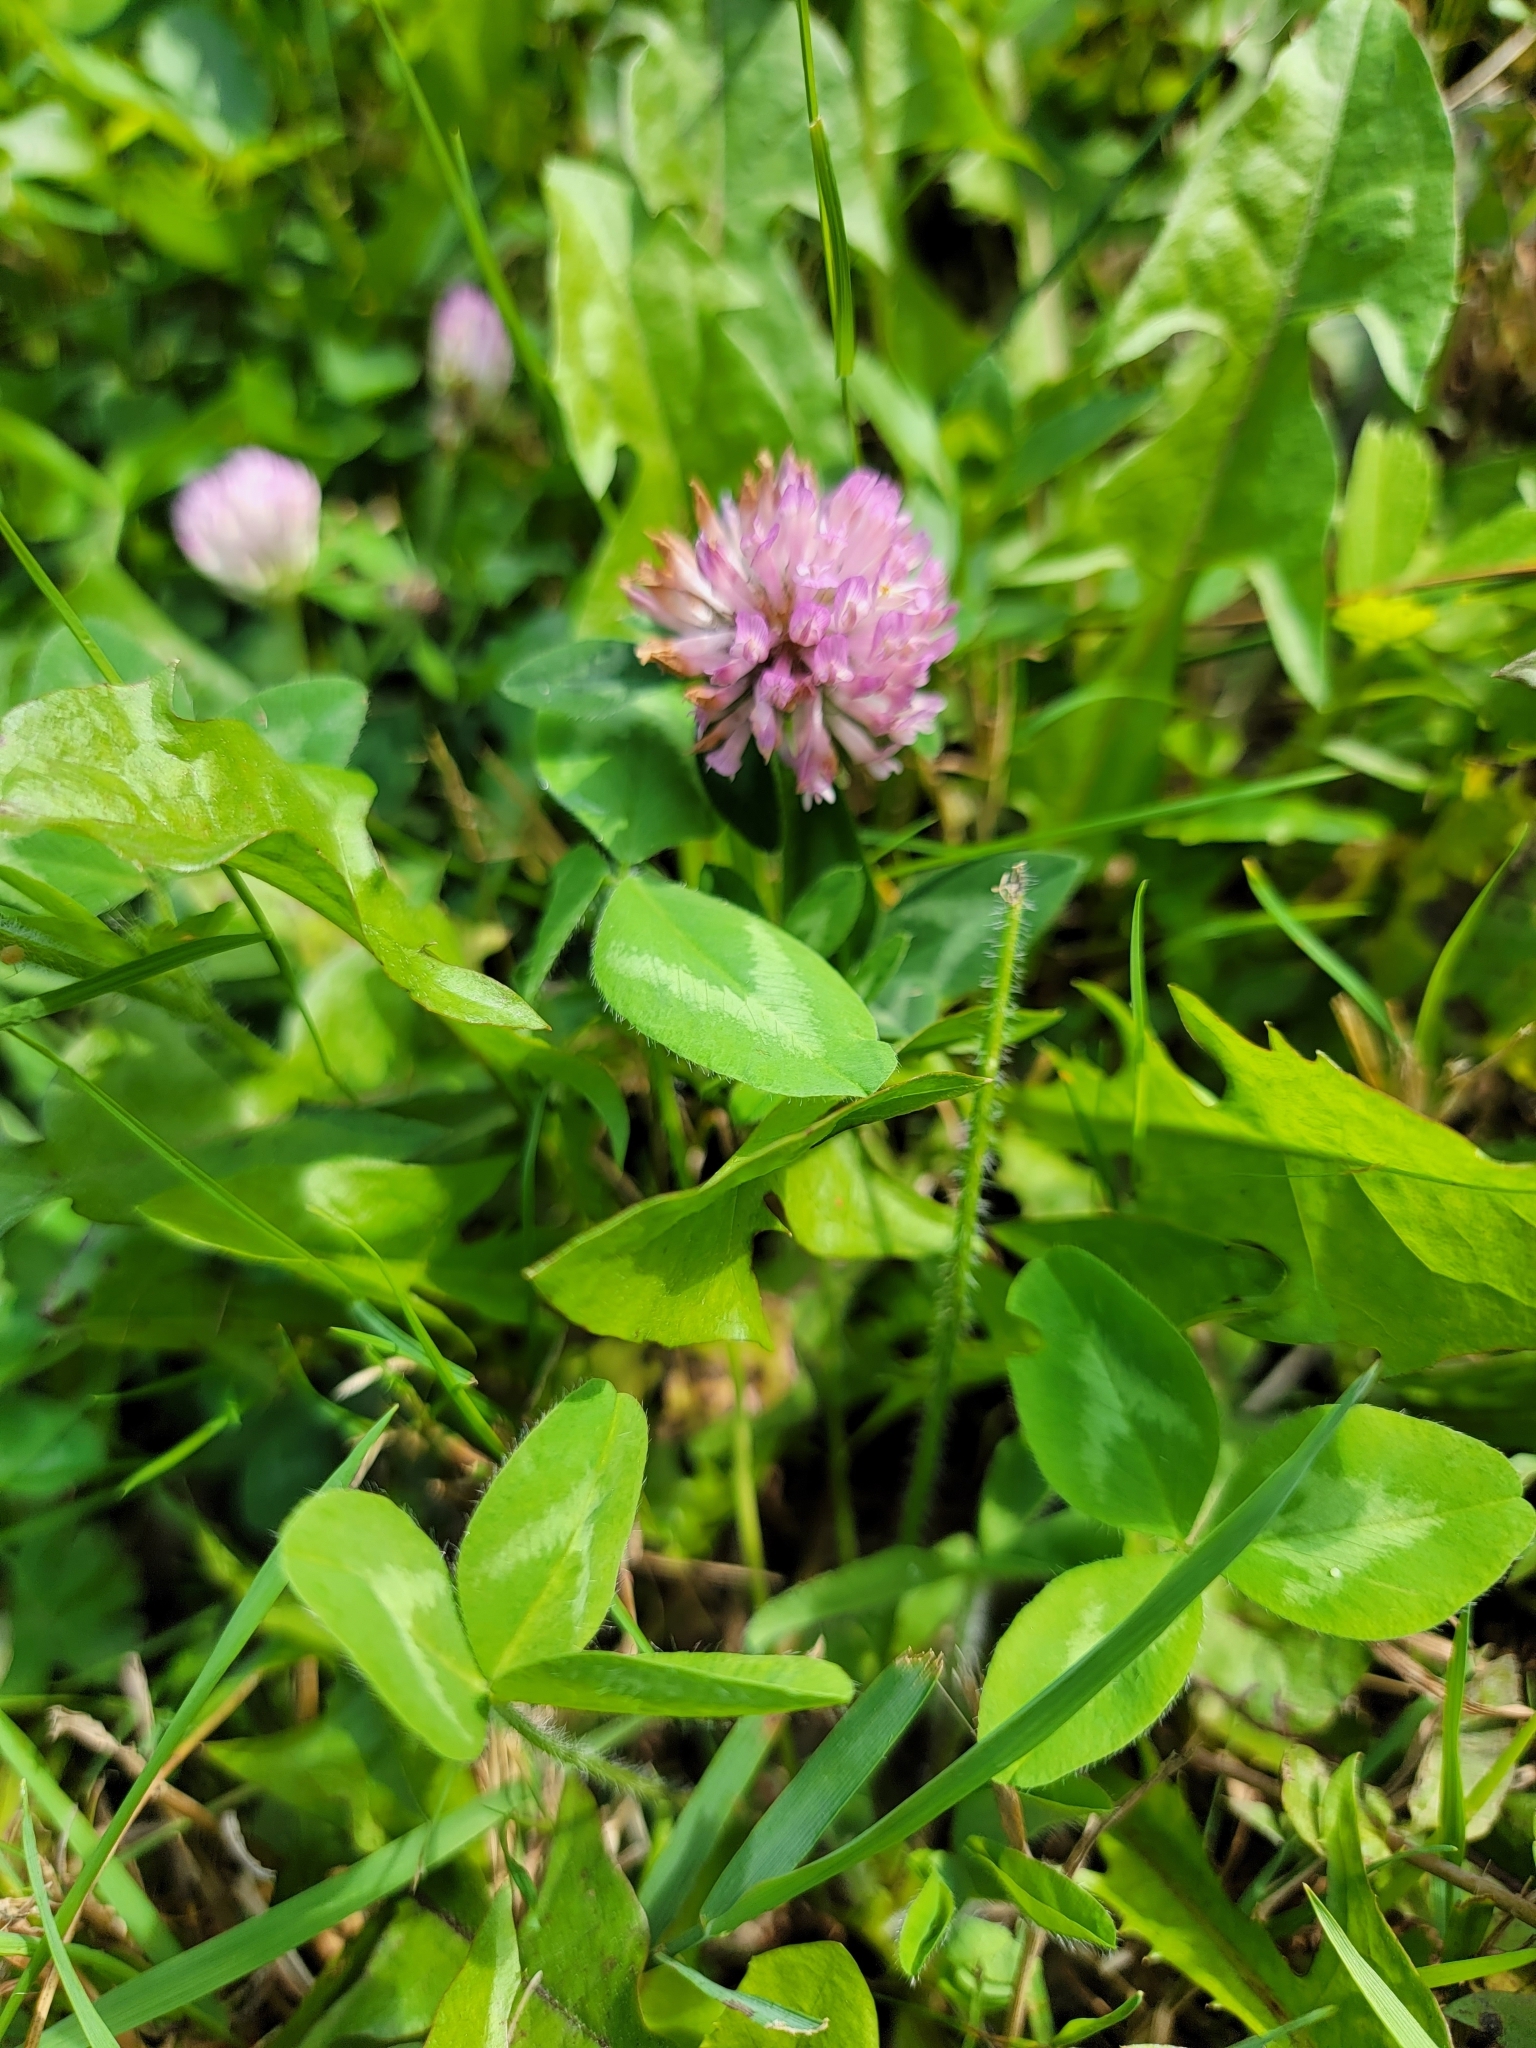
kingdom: Plantae
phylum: Tracheophyta
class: Magnoliopsida
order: Fabales
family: Fabaceae
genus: Trifolium
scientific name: Trifolium pratense
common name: Red clover
